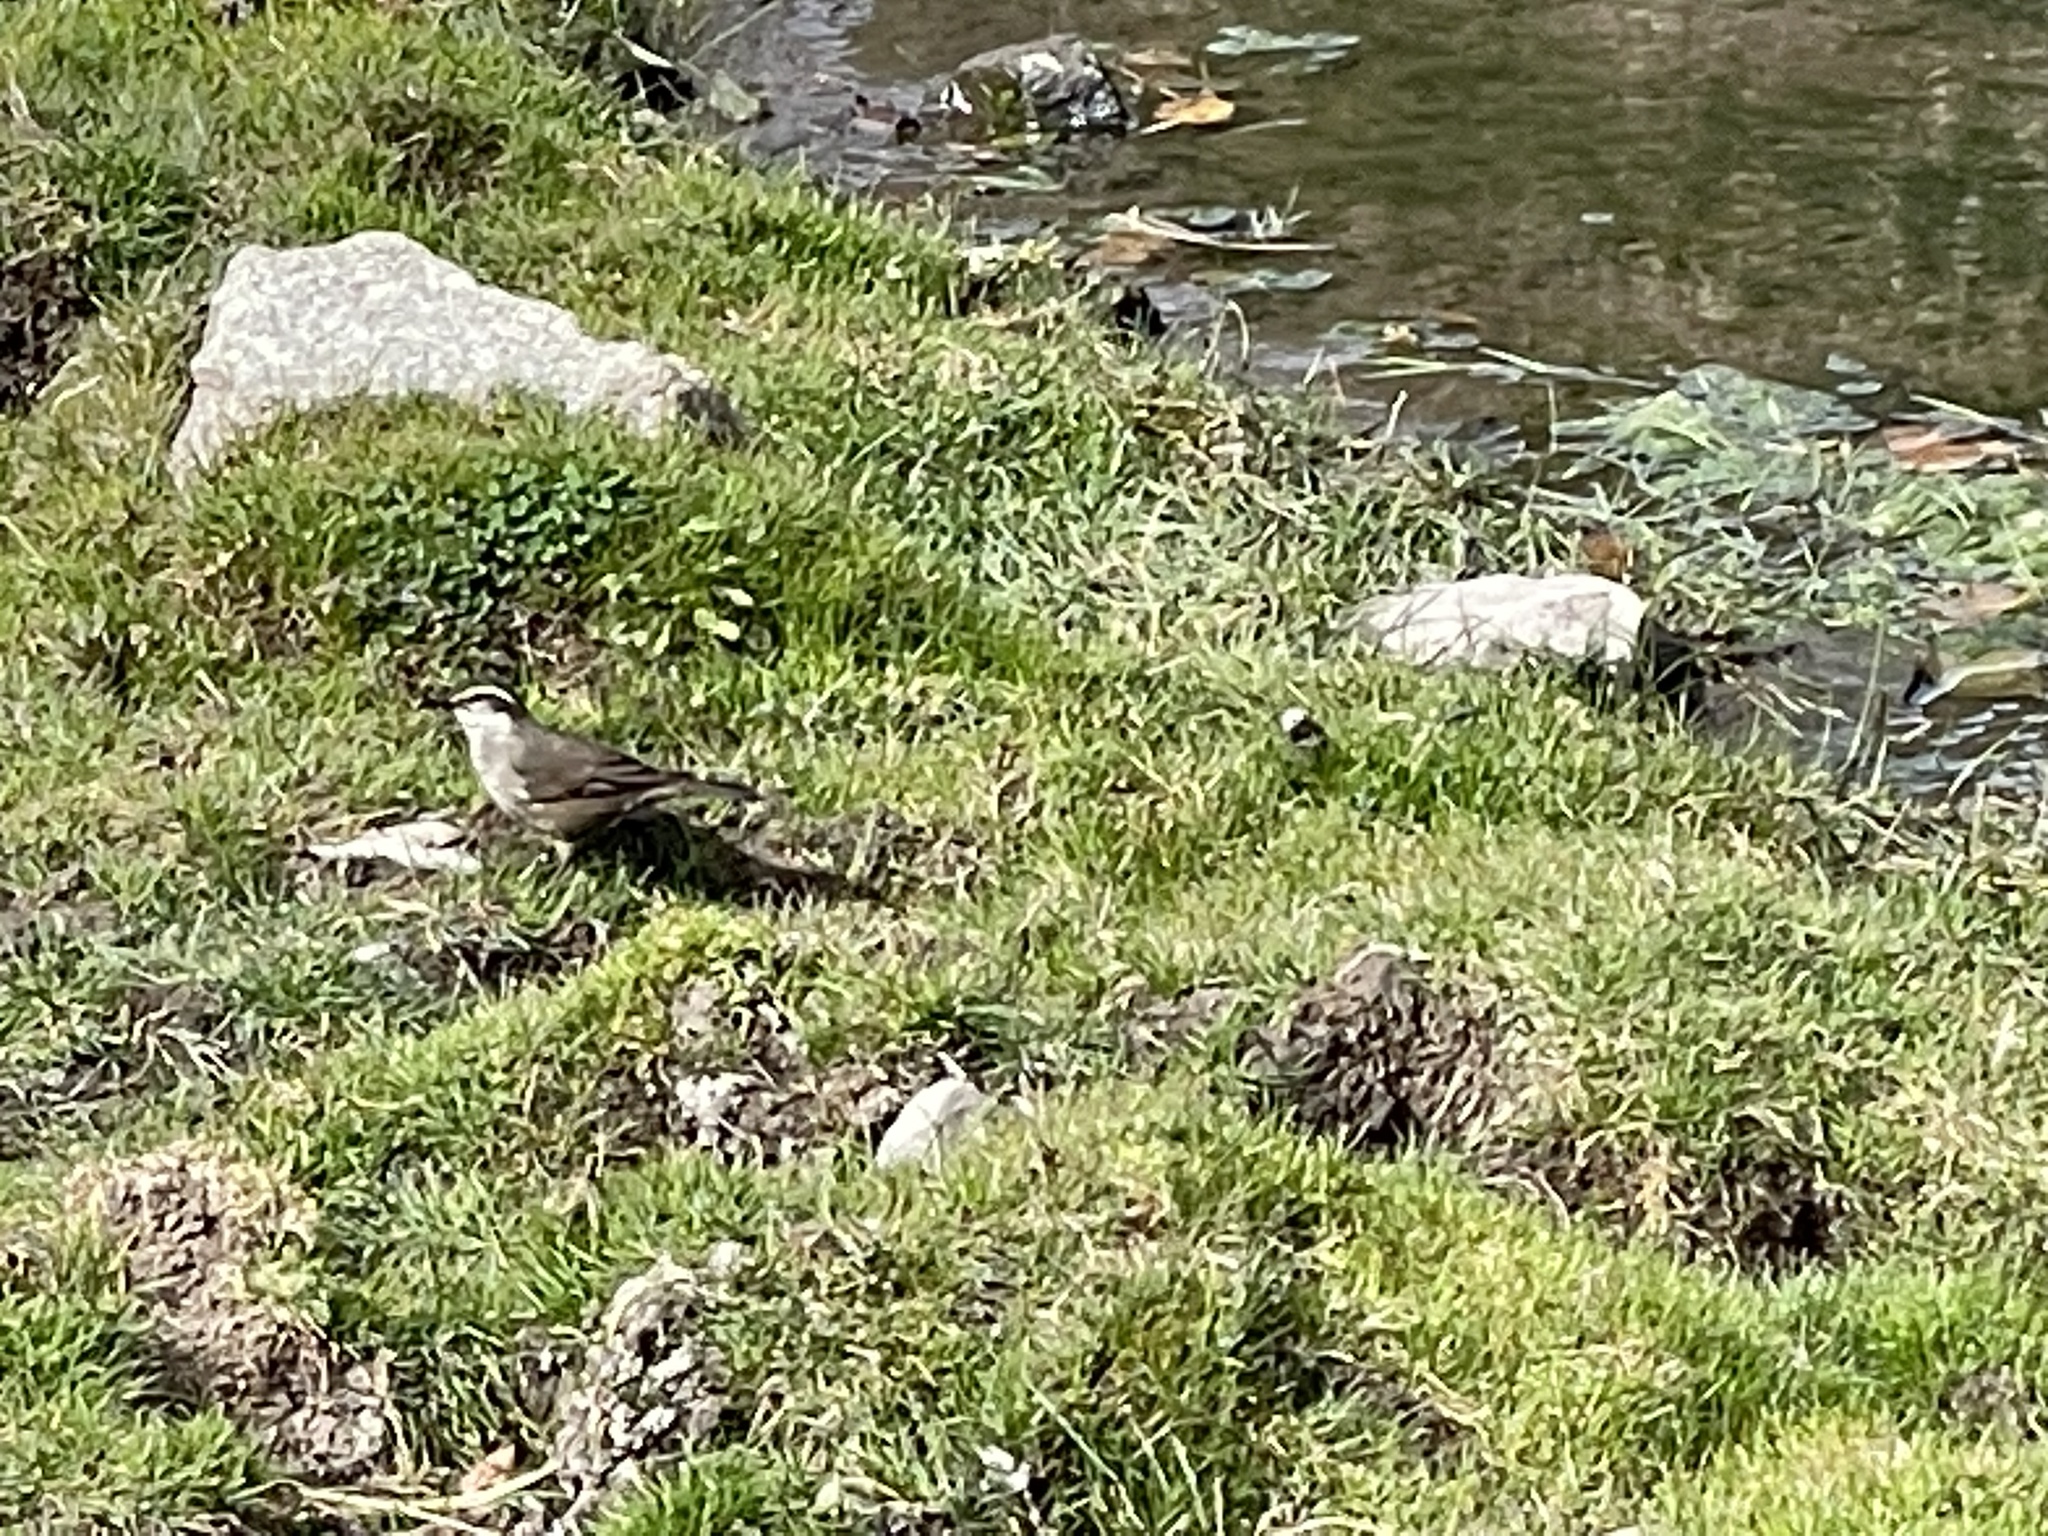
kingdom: Animalia
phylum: Chordata
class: Aves
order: Passeriformes
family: Furnariidae
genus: Cinclodes
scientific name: Cinclodes oustaleti
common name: Grey-flanked cinclodes
